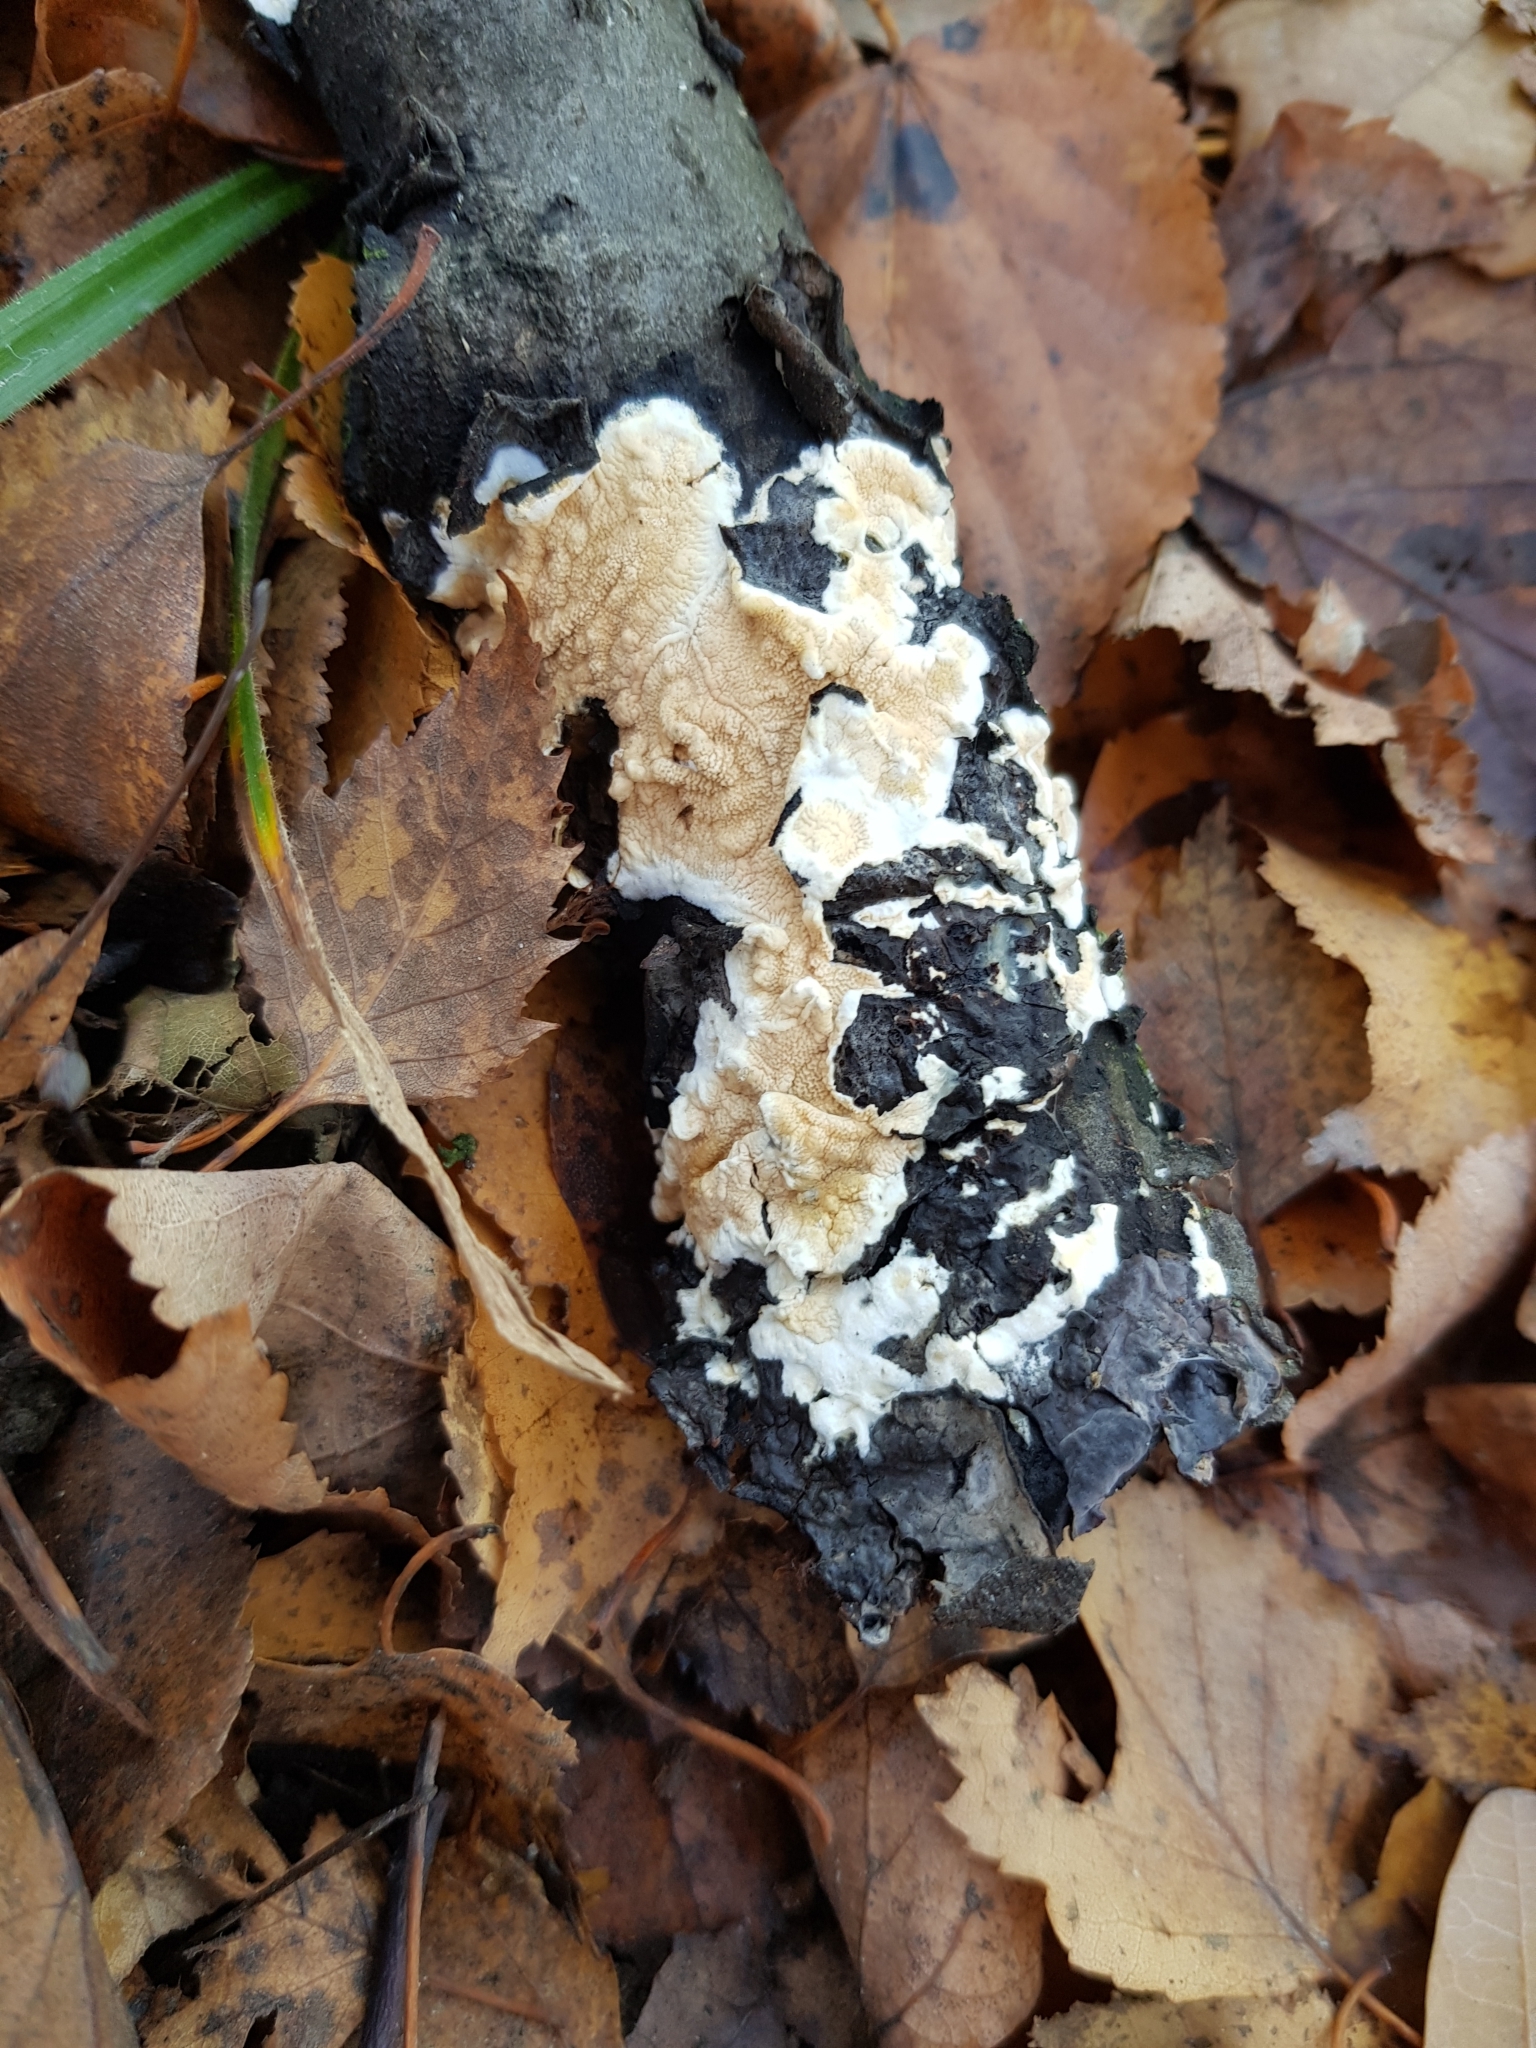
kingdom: Fungi
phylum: Basidiomycota
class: Agaricomycetes
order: Polyporales
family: Irpicaceae
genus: Byssomerulius
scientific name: Byssomerulius corium
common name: Netted crust
